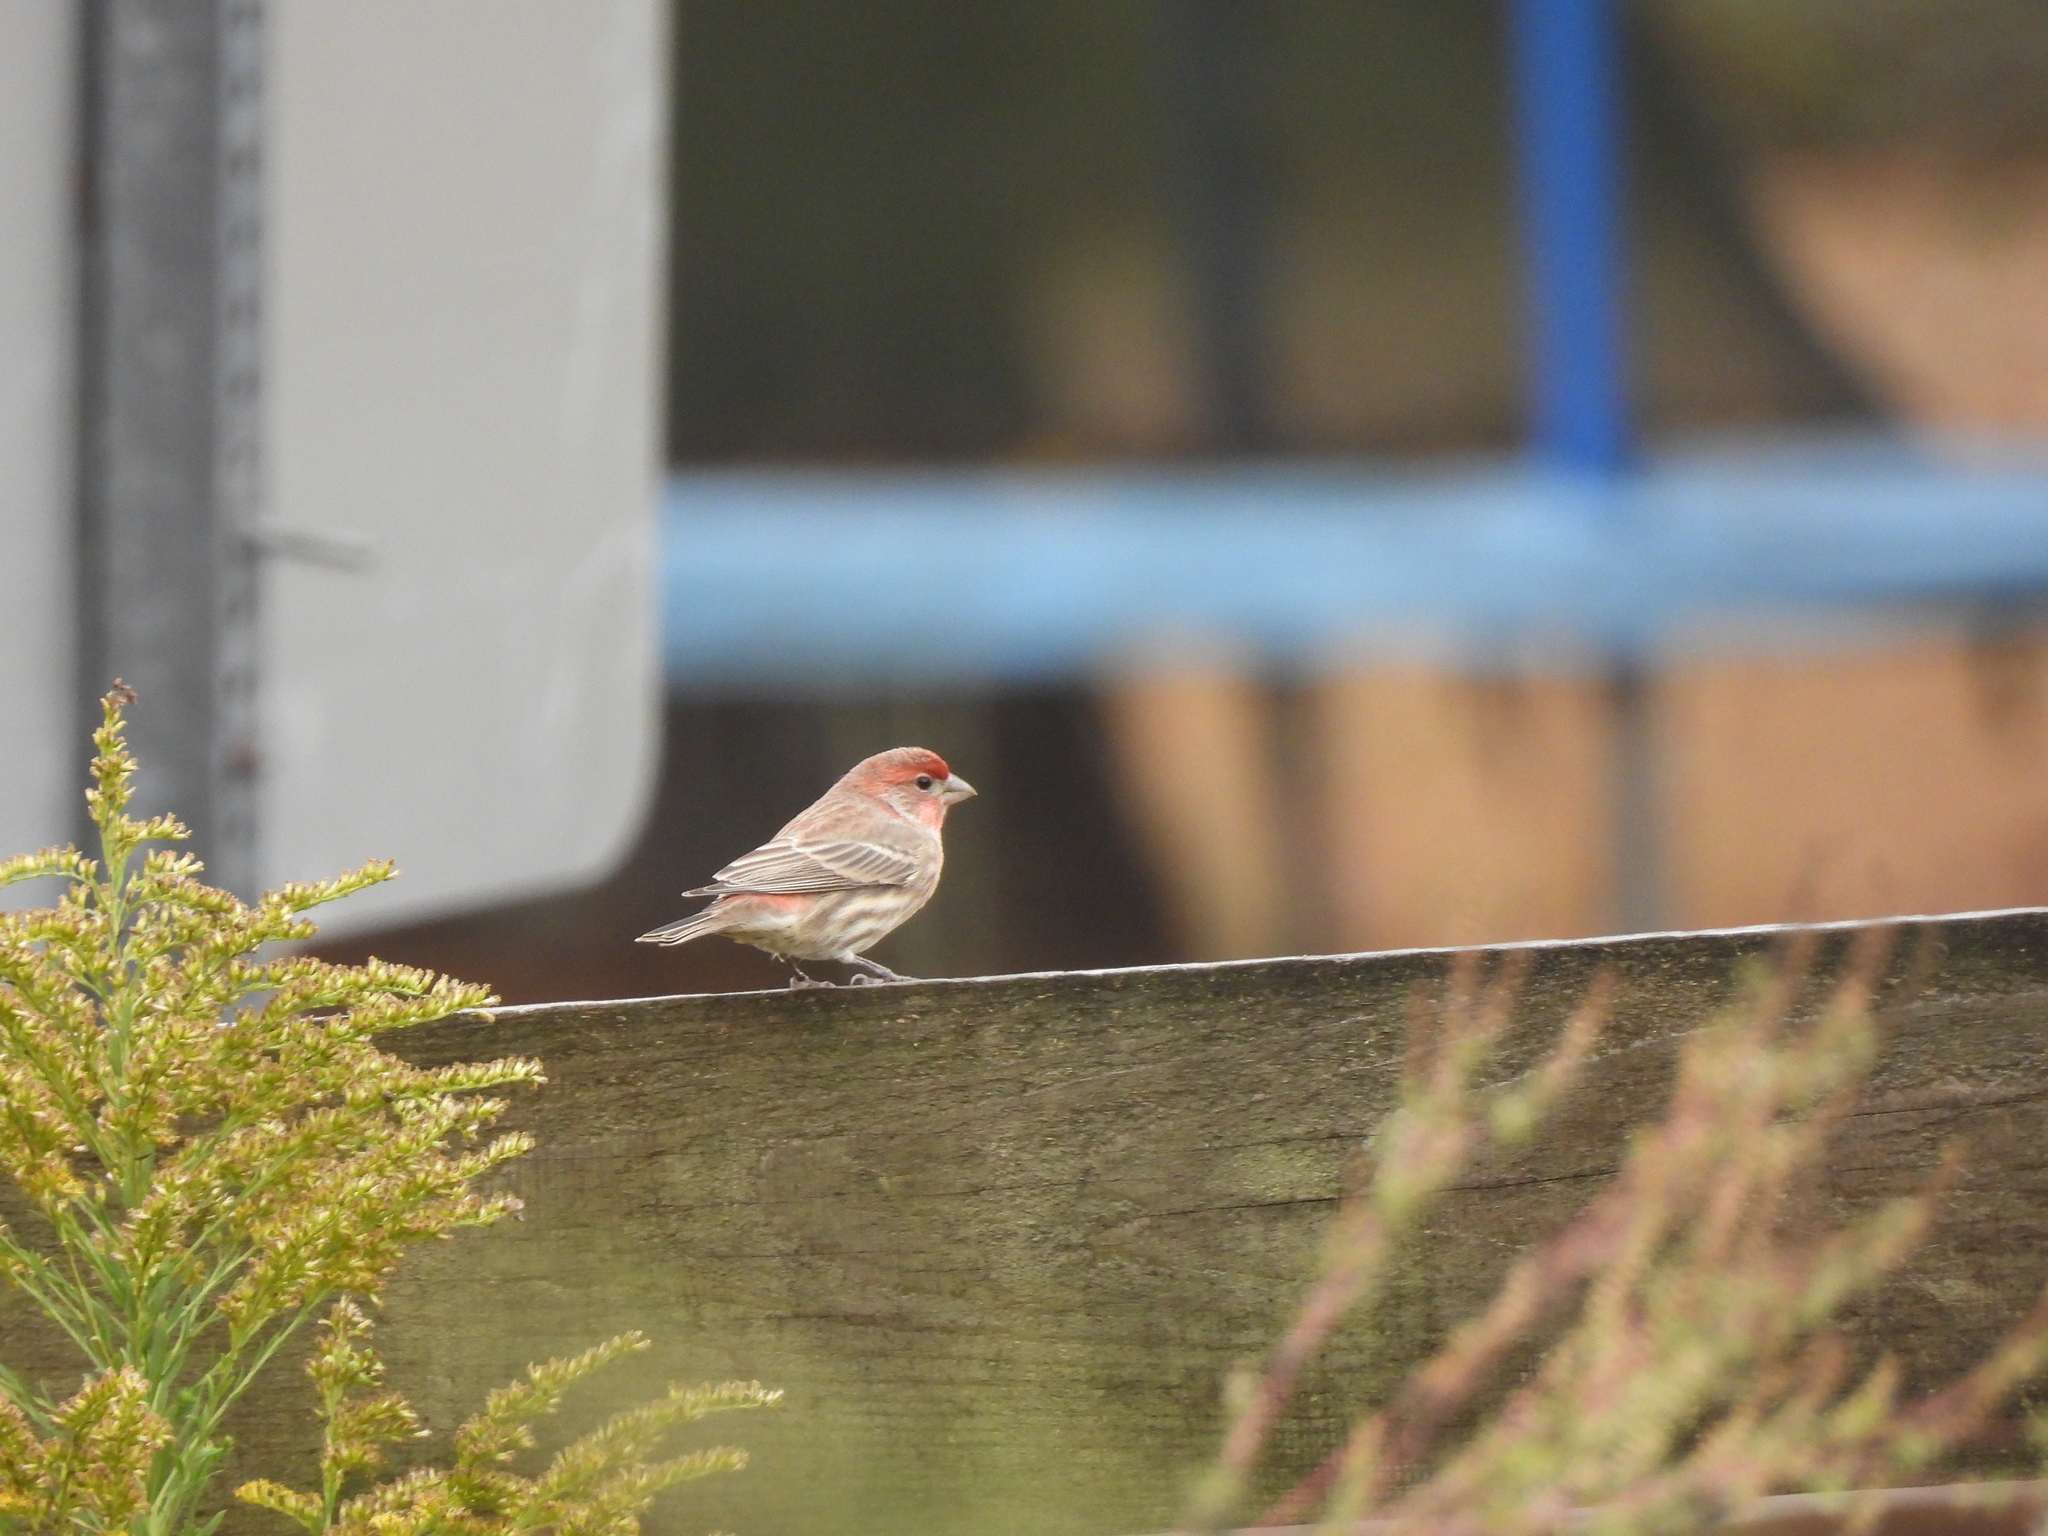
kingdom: Animalia
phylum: Chordata
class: Aves
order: Passeriformes
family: Fringillidae
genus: Haemorhous
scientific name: Haemorhous mexicanus
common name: House finch
